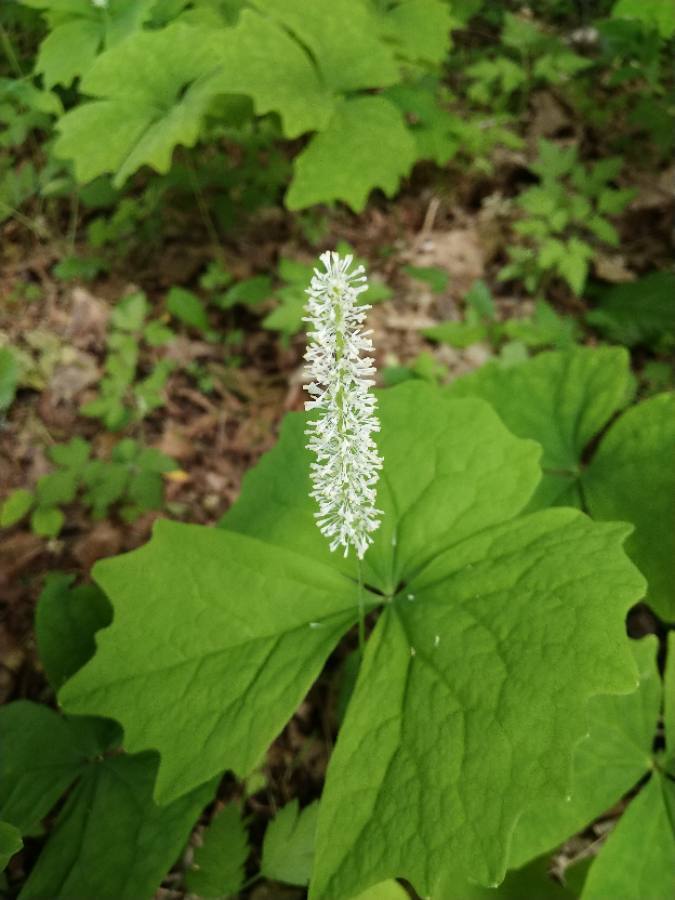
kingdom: Plantae
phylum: Tracheophyta
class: Magnoliopsida
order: Ranunculales
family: Berberidaceae
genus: Achlys
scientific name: Achlys triphylla
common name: Vanilla-leaf
